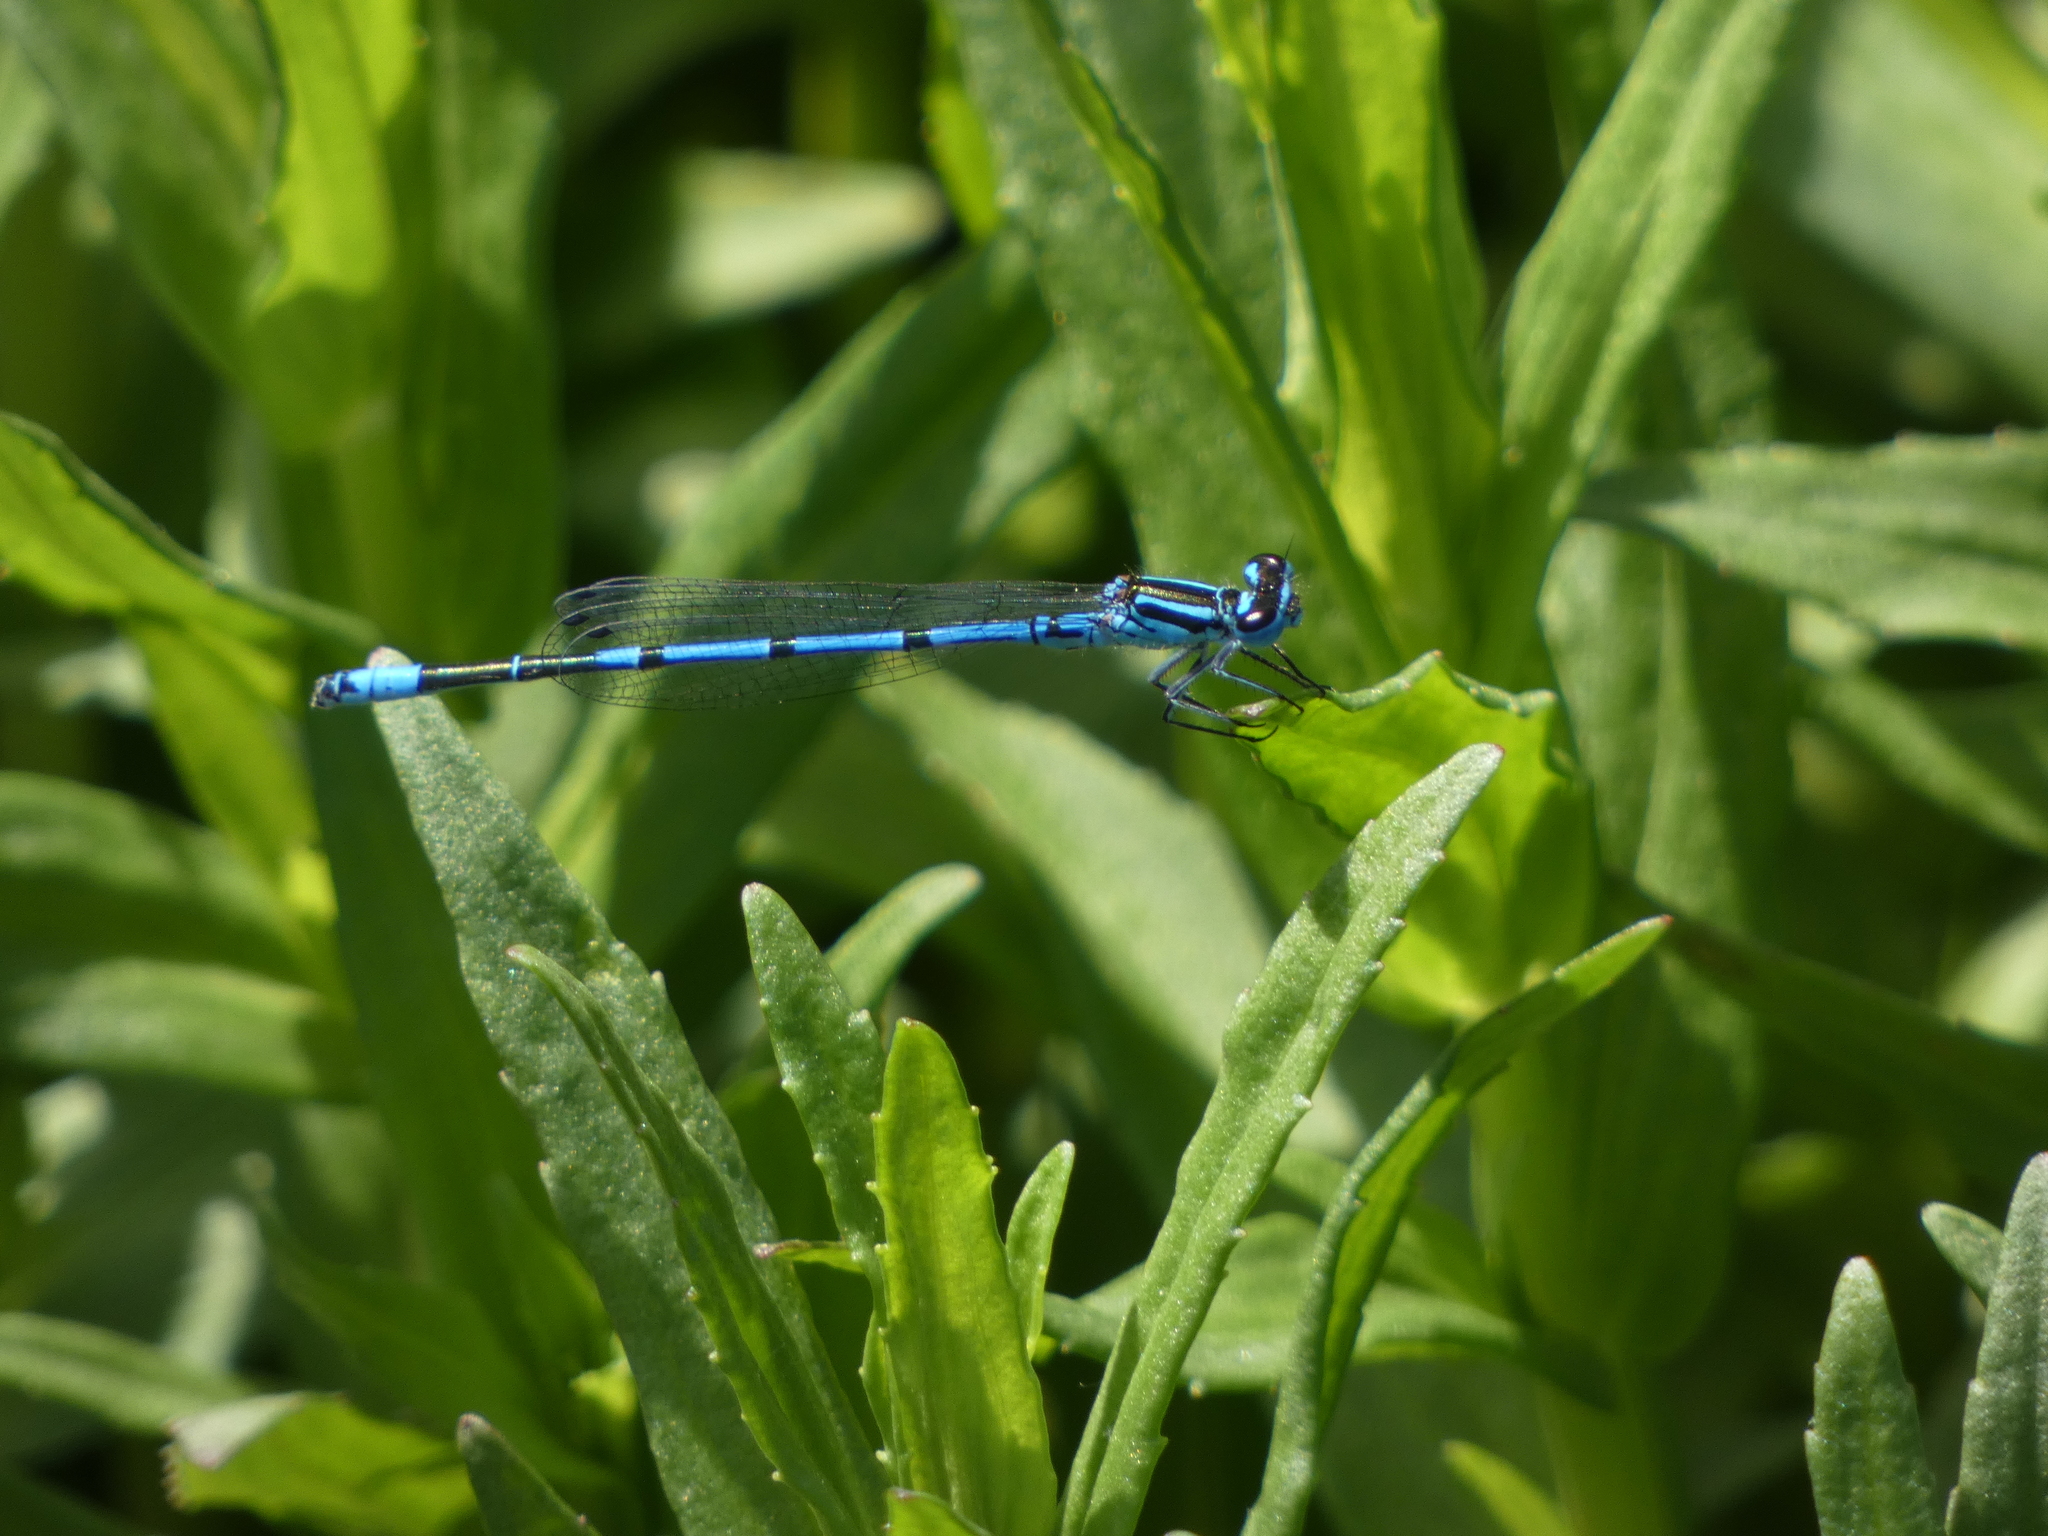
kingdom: Animalia
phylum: Arthropoda
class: Insecta
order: Odonata
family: Coenagrionidae
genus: Coenagrion
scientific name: Coenagrion puella
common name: Azure damselfly
